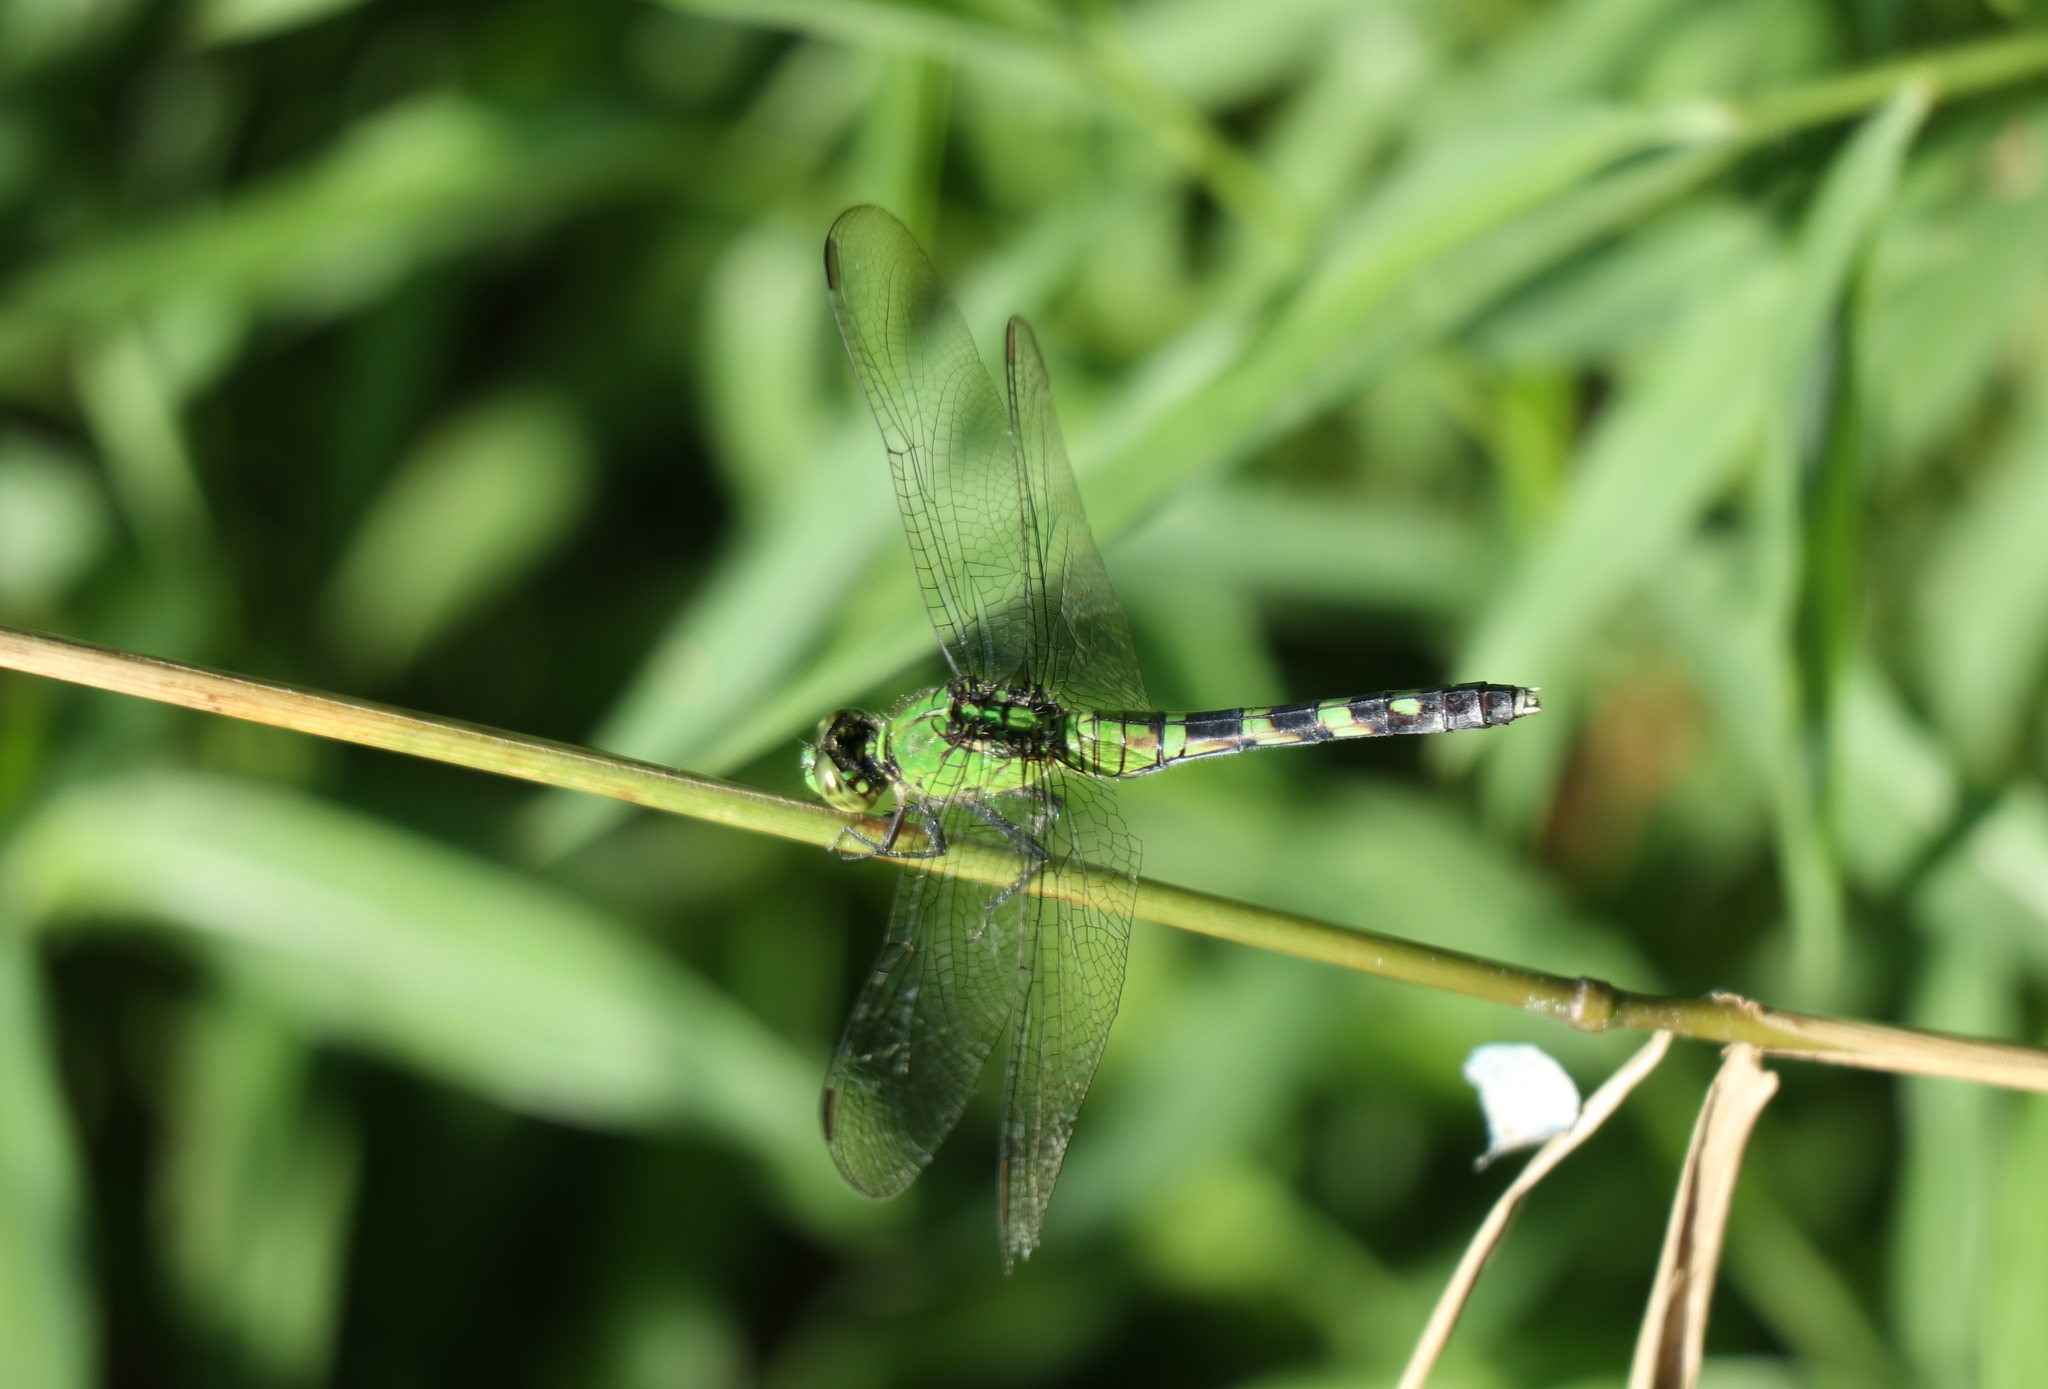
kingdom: Animalia
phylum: Arthropoda
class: Insecta
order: Odonata
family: Libellulidae
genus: Erythemis
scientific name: Erythemis simplicicollis
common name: Eastern pondhawk
